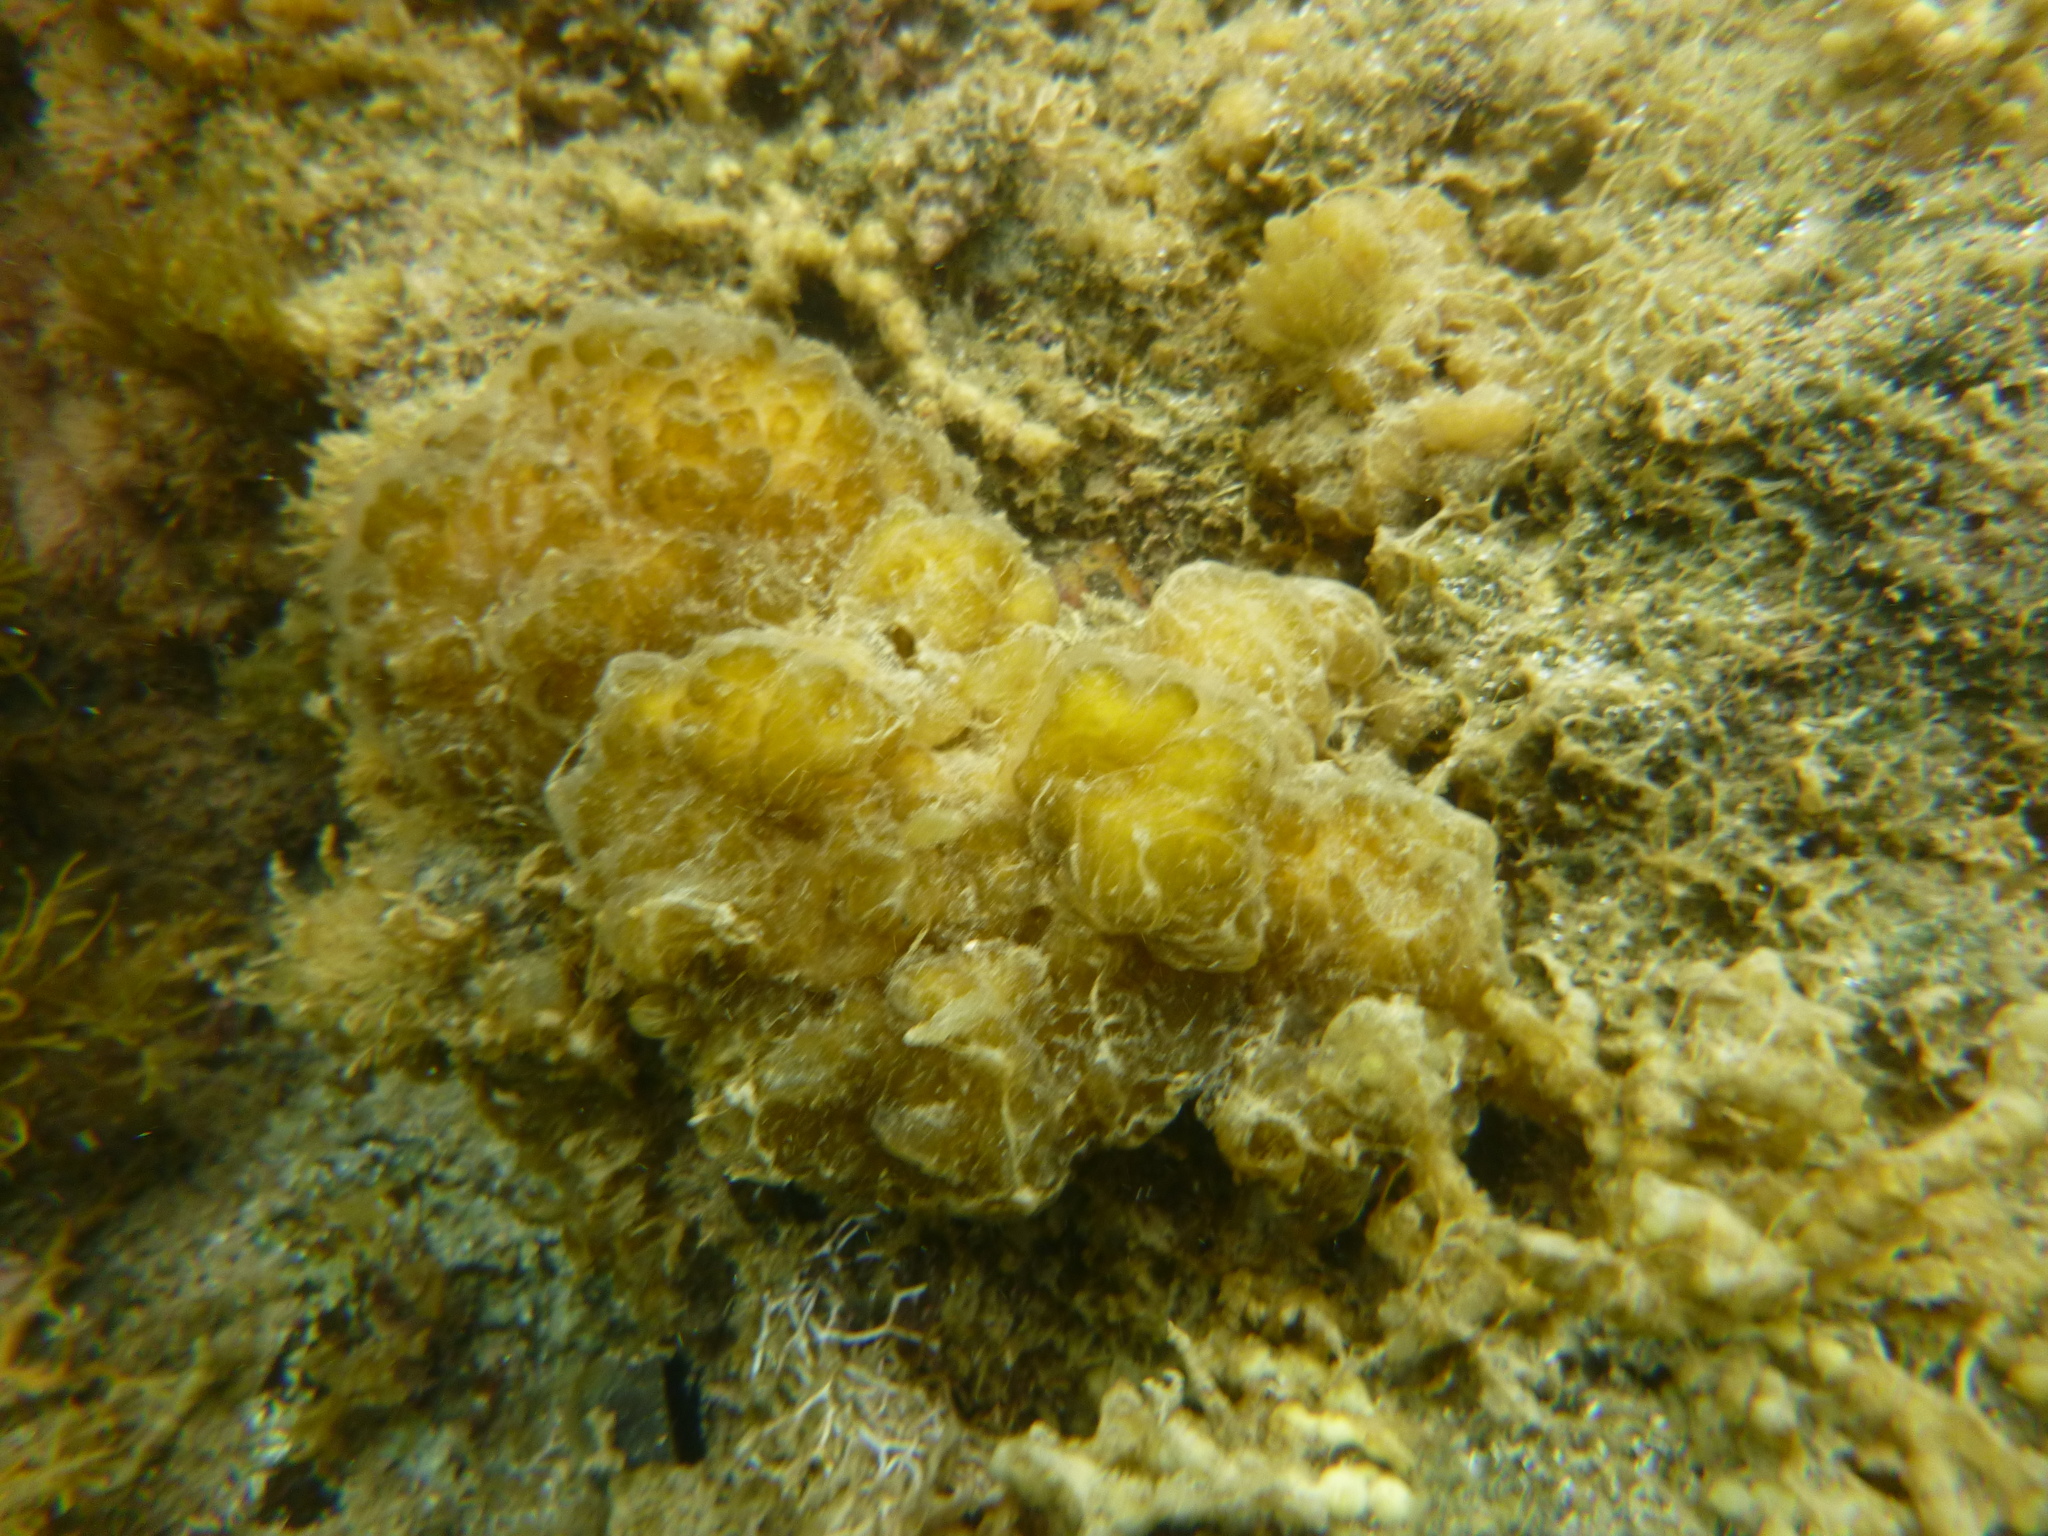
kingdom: Chromista
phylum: Ochrophyta
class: Phaeophyceae
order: Ectocarpales
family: Chordariaceae
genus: Leathesia
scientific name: Leathesia marina
